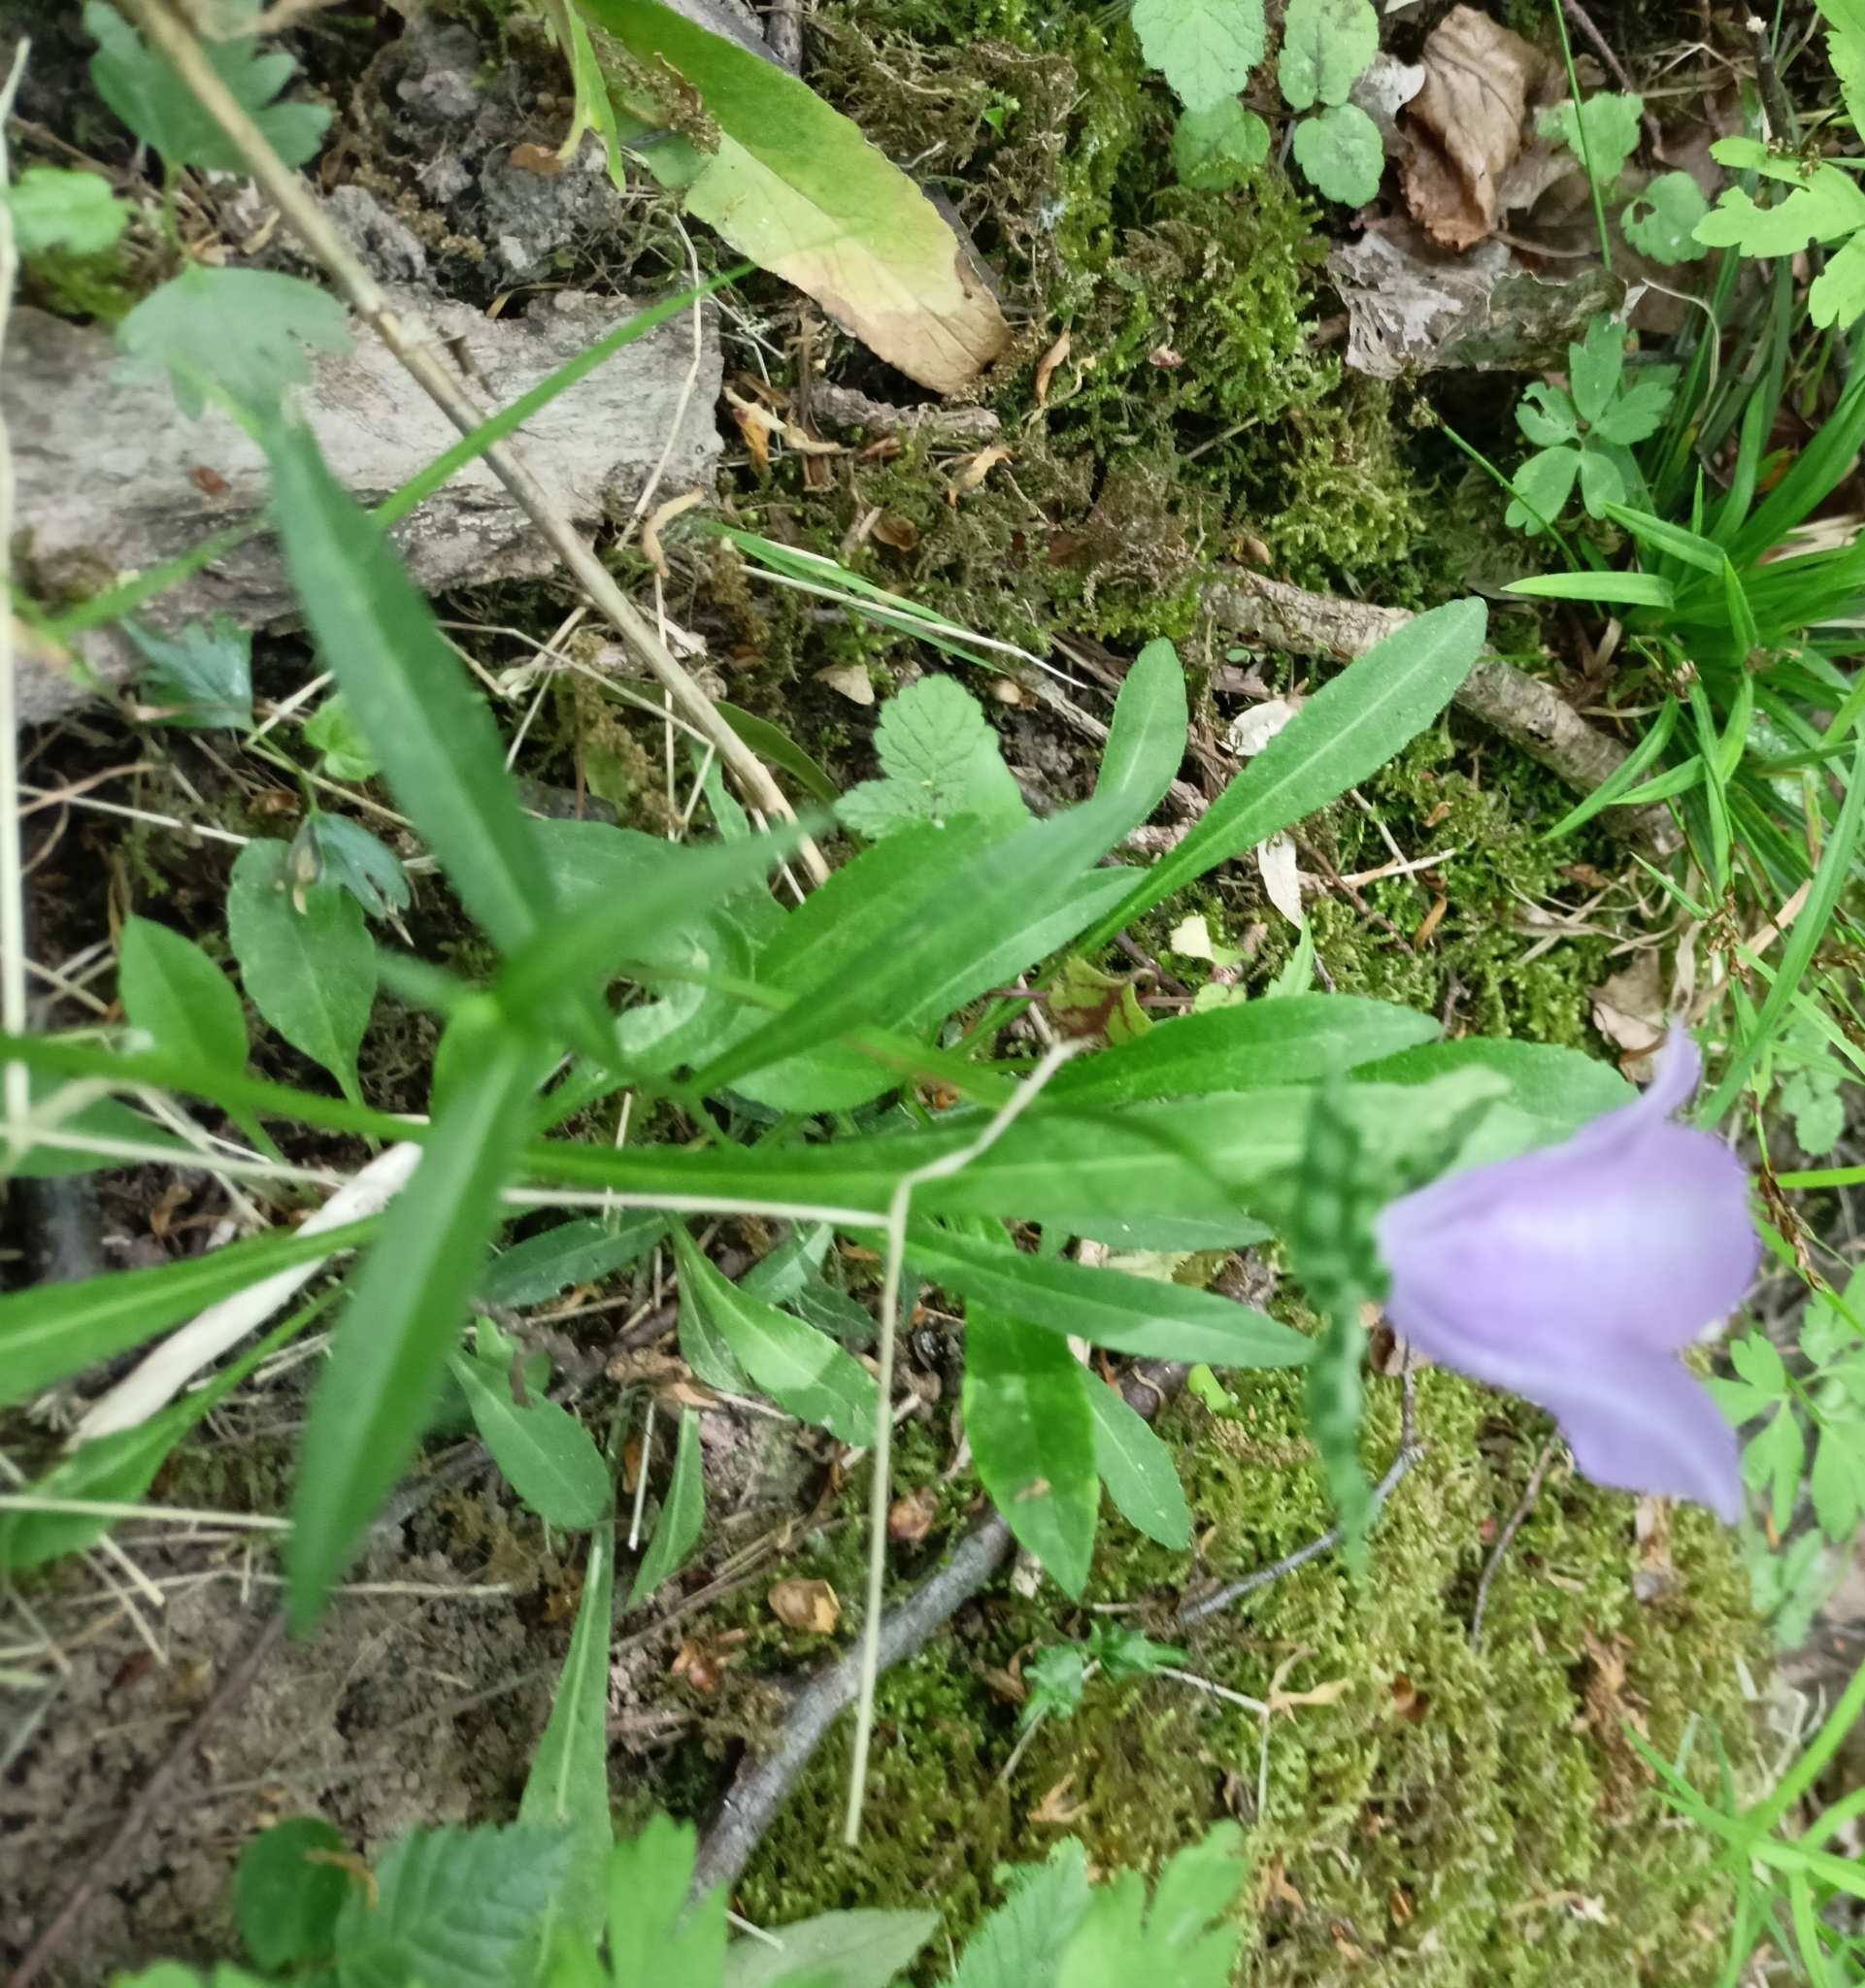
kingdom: Plantae
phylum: Tracheophyta
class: Magnoliopsida
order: Asterales
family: Campanulaceae
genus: Campanula
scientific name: Campanula persicifolia
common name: Peach-leaved bellflower
